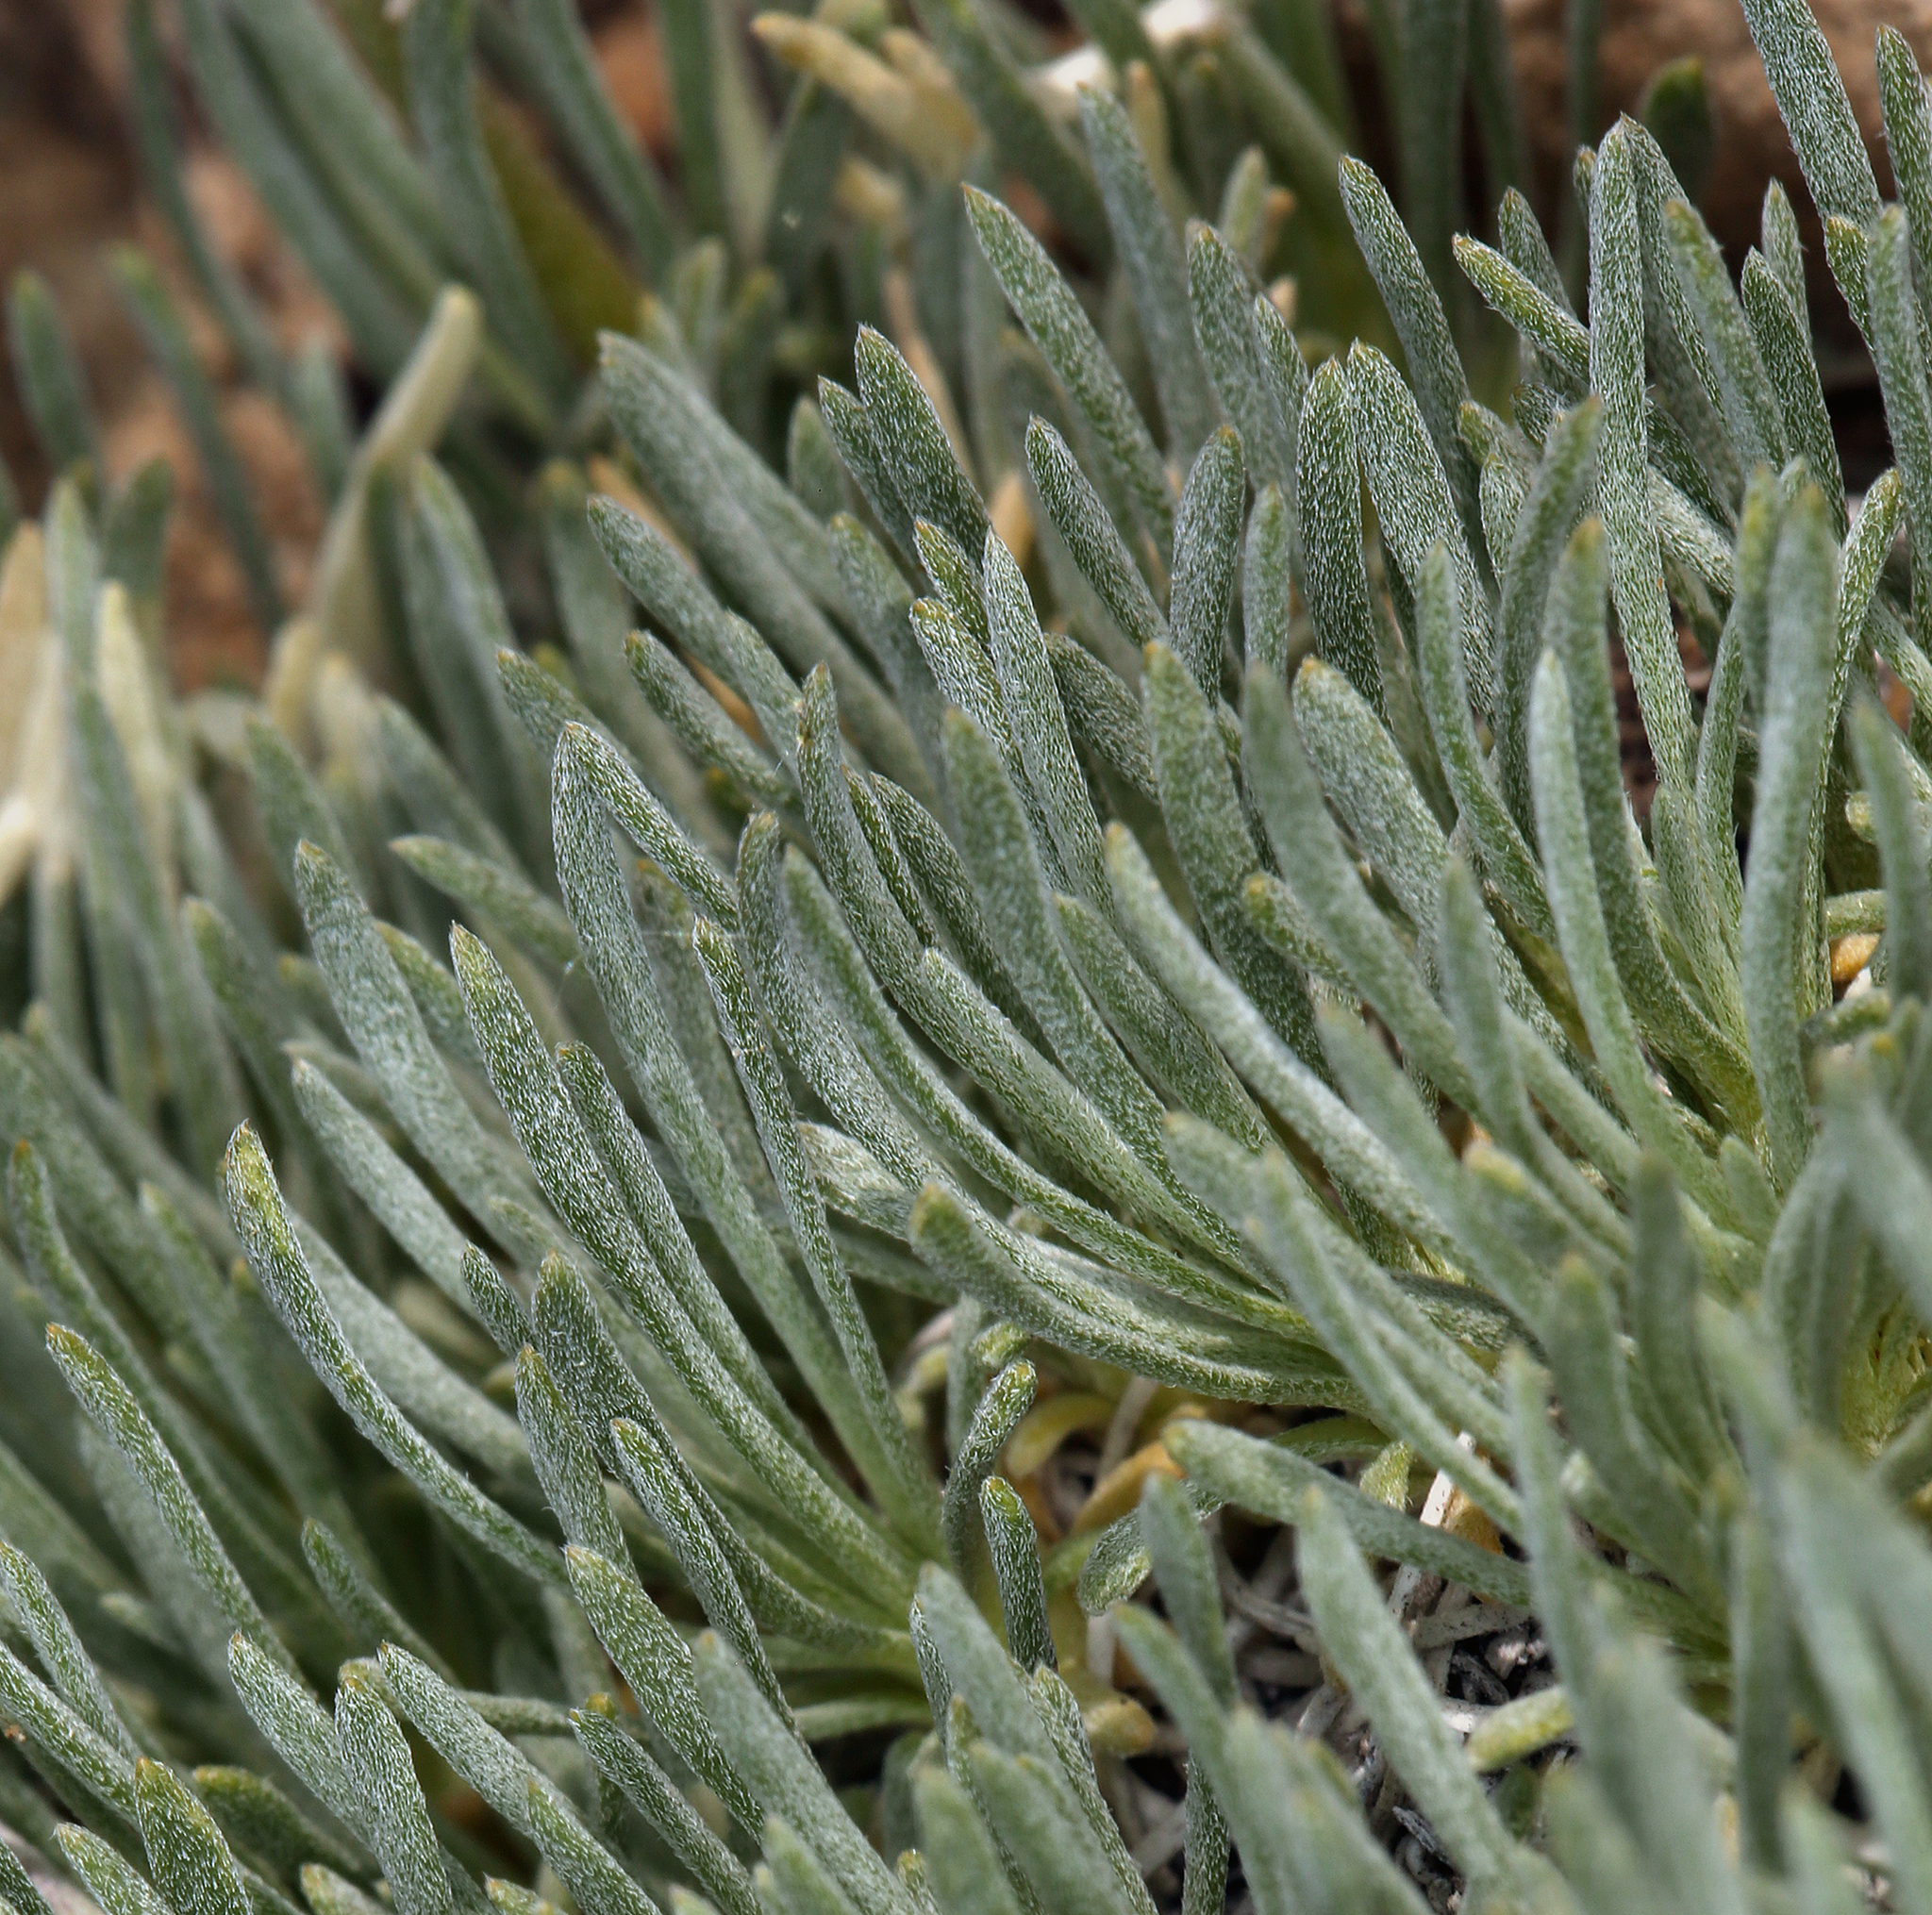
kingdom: Plantae
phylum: Tracheophyta
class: Magnoliopsida
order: Asterales
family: Asteraceae
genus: Erigeron
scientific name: Erigeron compactus
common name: Fern-leaf fleabane
